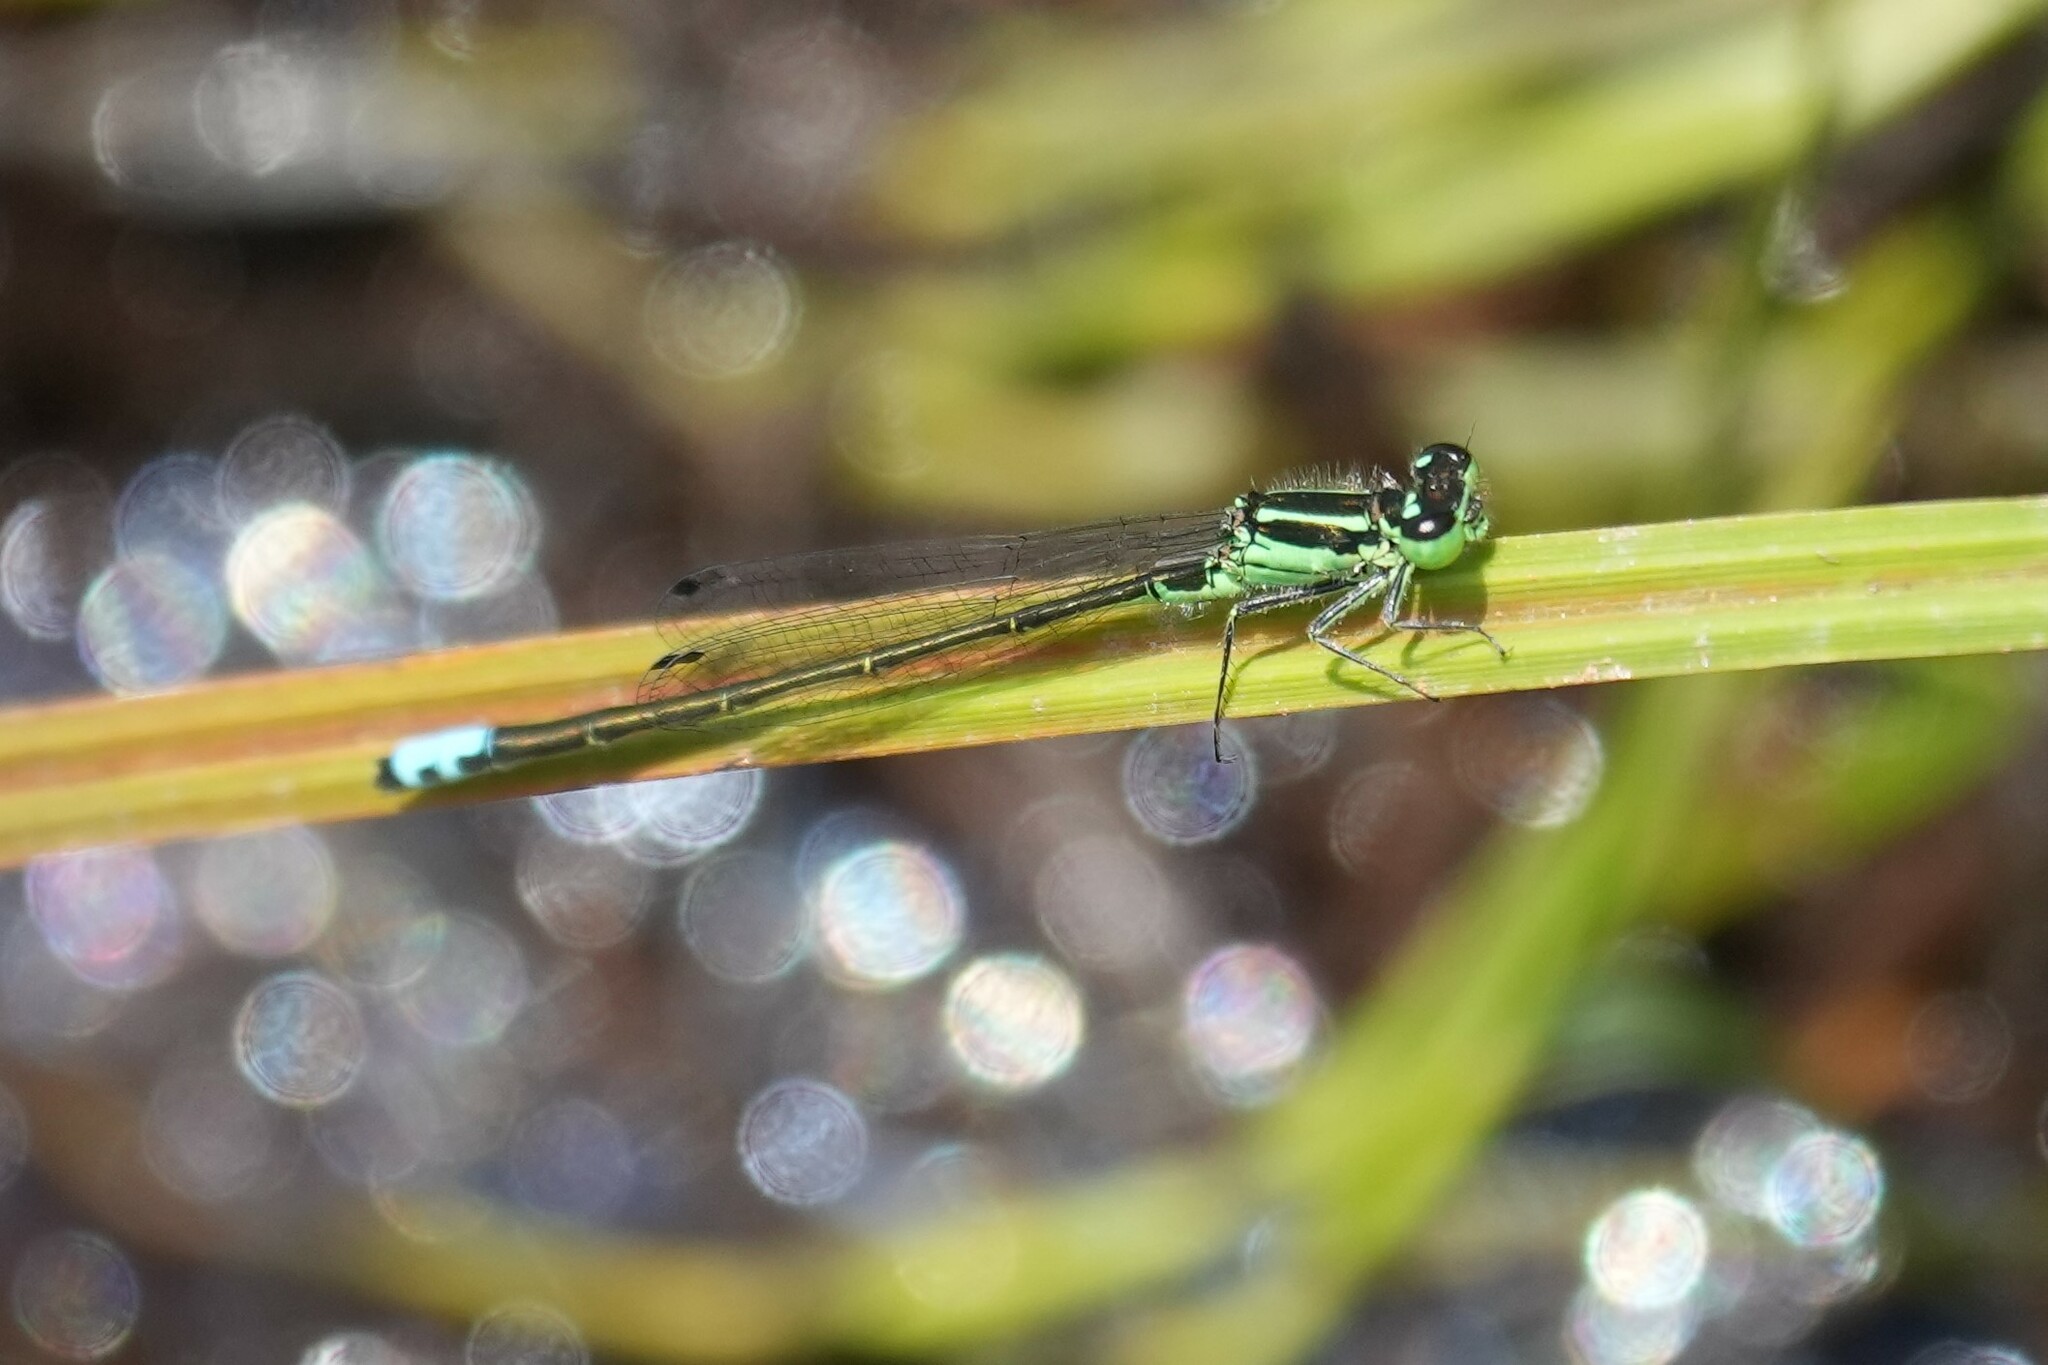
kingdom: Animalia
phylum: Arthropoda
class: Insecta
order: Odonata
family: Coenagrionidae
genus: Ischnura
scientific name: Ischnura verticalis
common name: Eastern forktail
